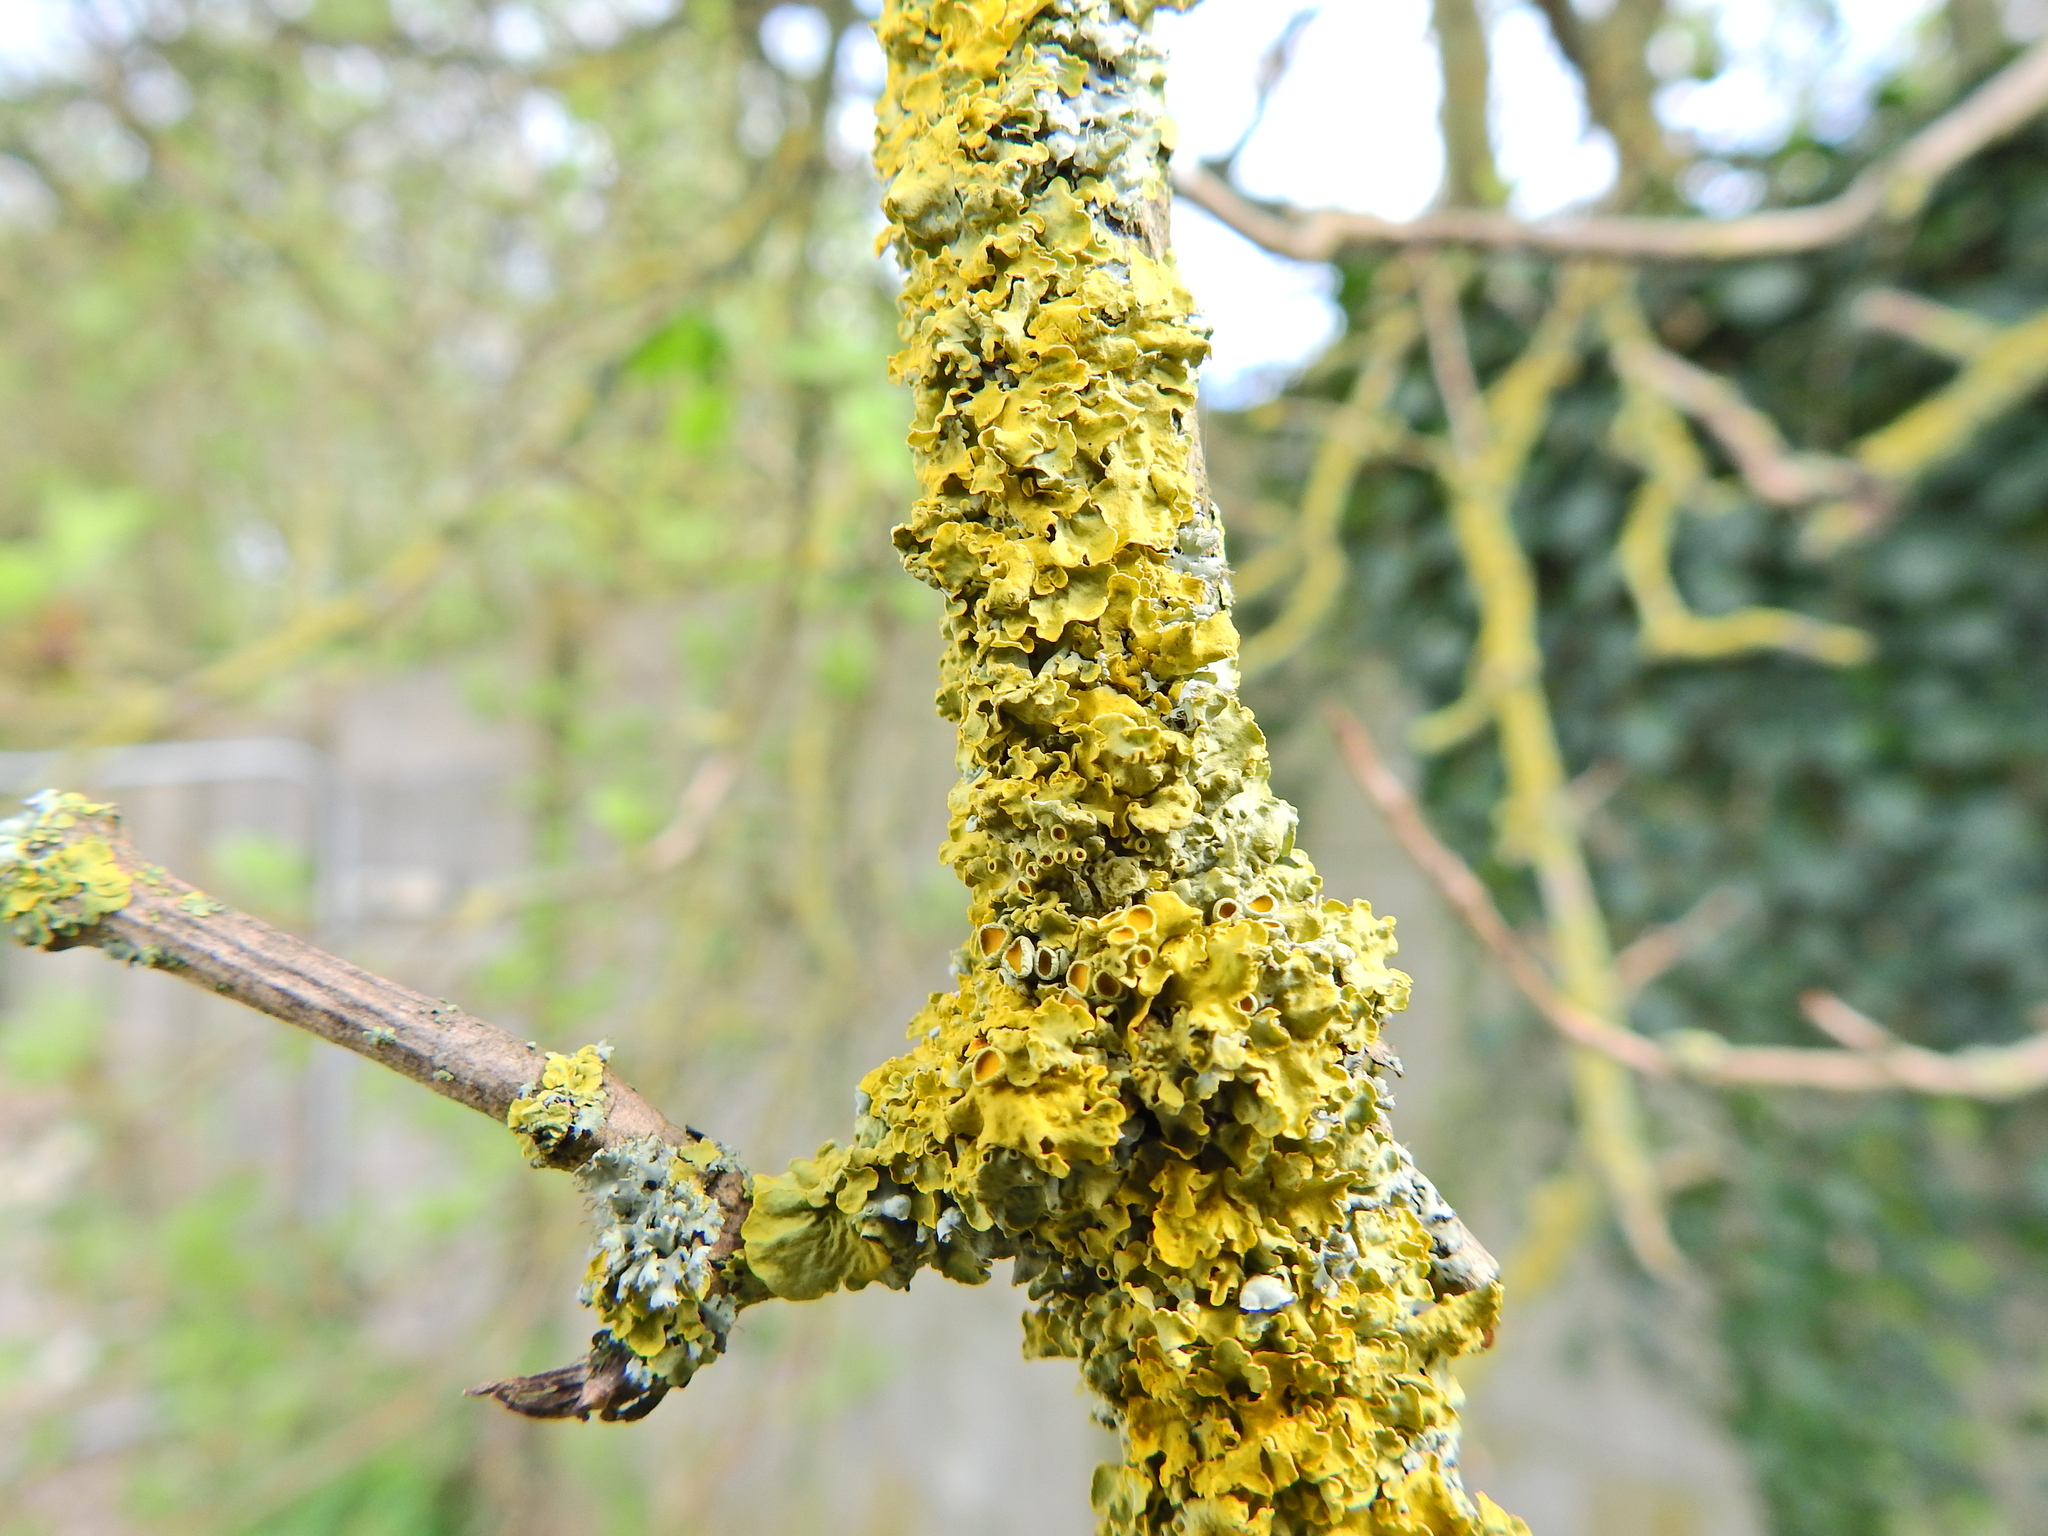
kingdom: Fungi
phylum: Ascomycota
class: Lecanoromycetes
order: Teloschistales
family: Teloschistaceae
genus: Xanthoria
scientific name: Xanthoria parietina
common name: Common orange lichen
